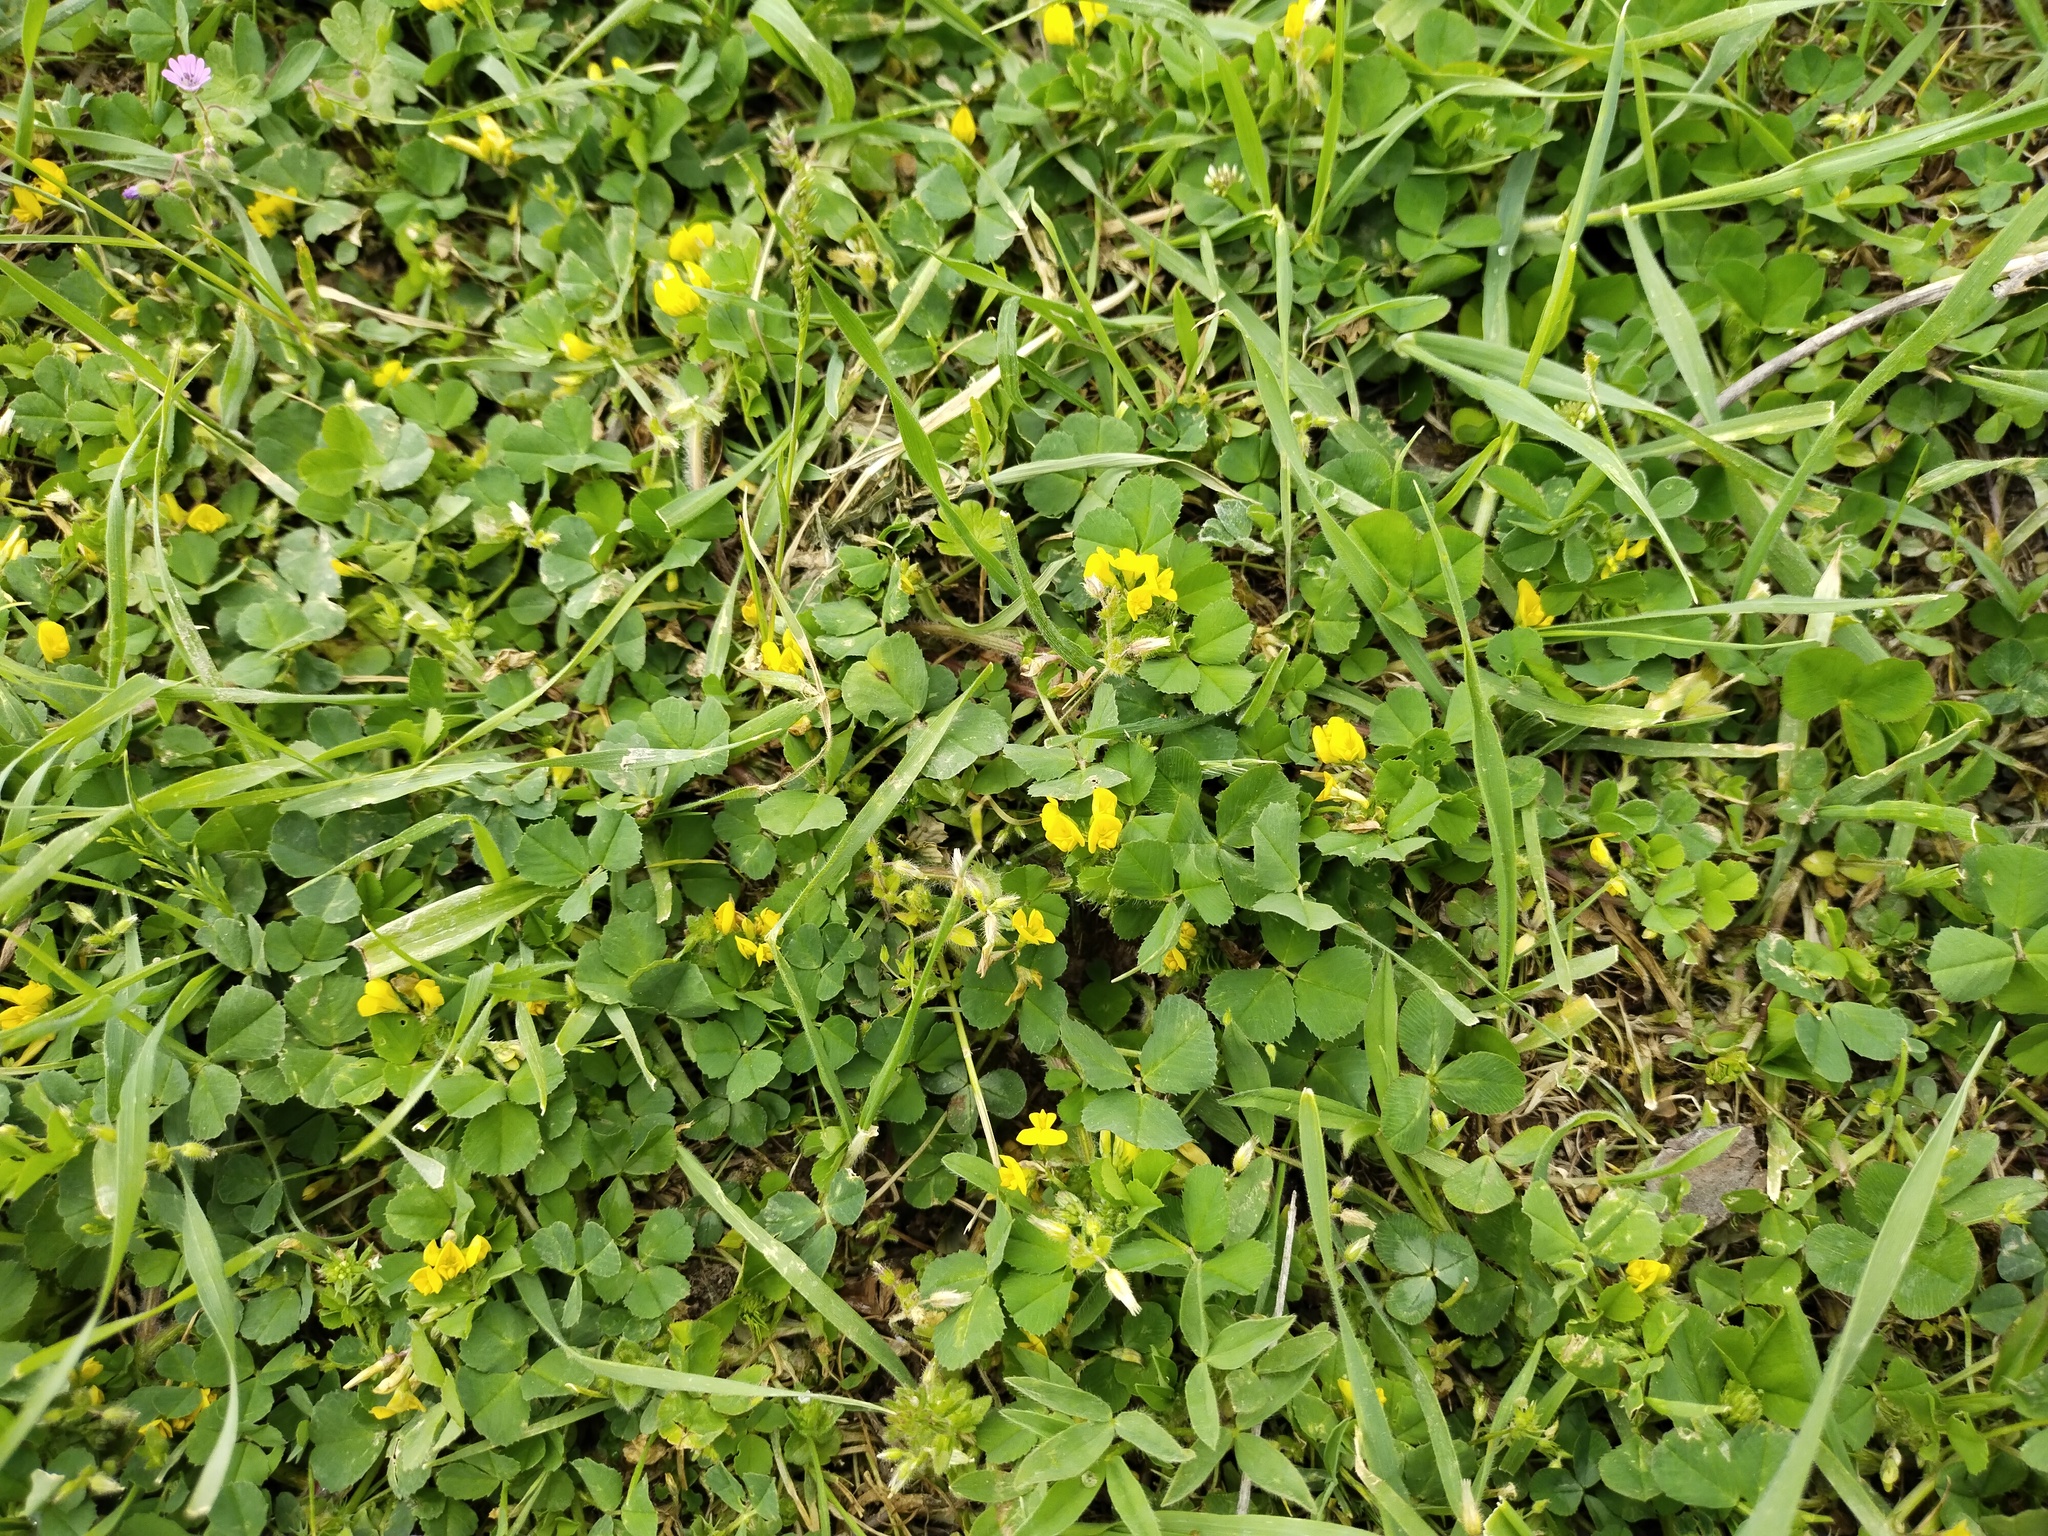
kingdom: Plantae
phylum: Tracheophyta
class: Magnoliopsida
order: Fabales
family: Fabaceae
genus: Medicago
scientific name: Medicago polymorpha
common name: Burclover
